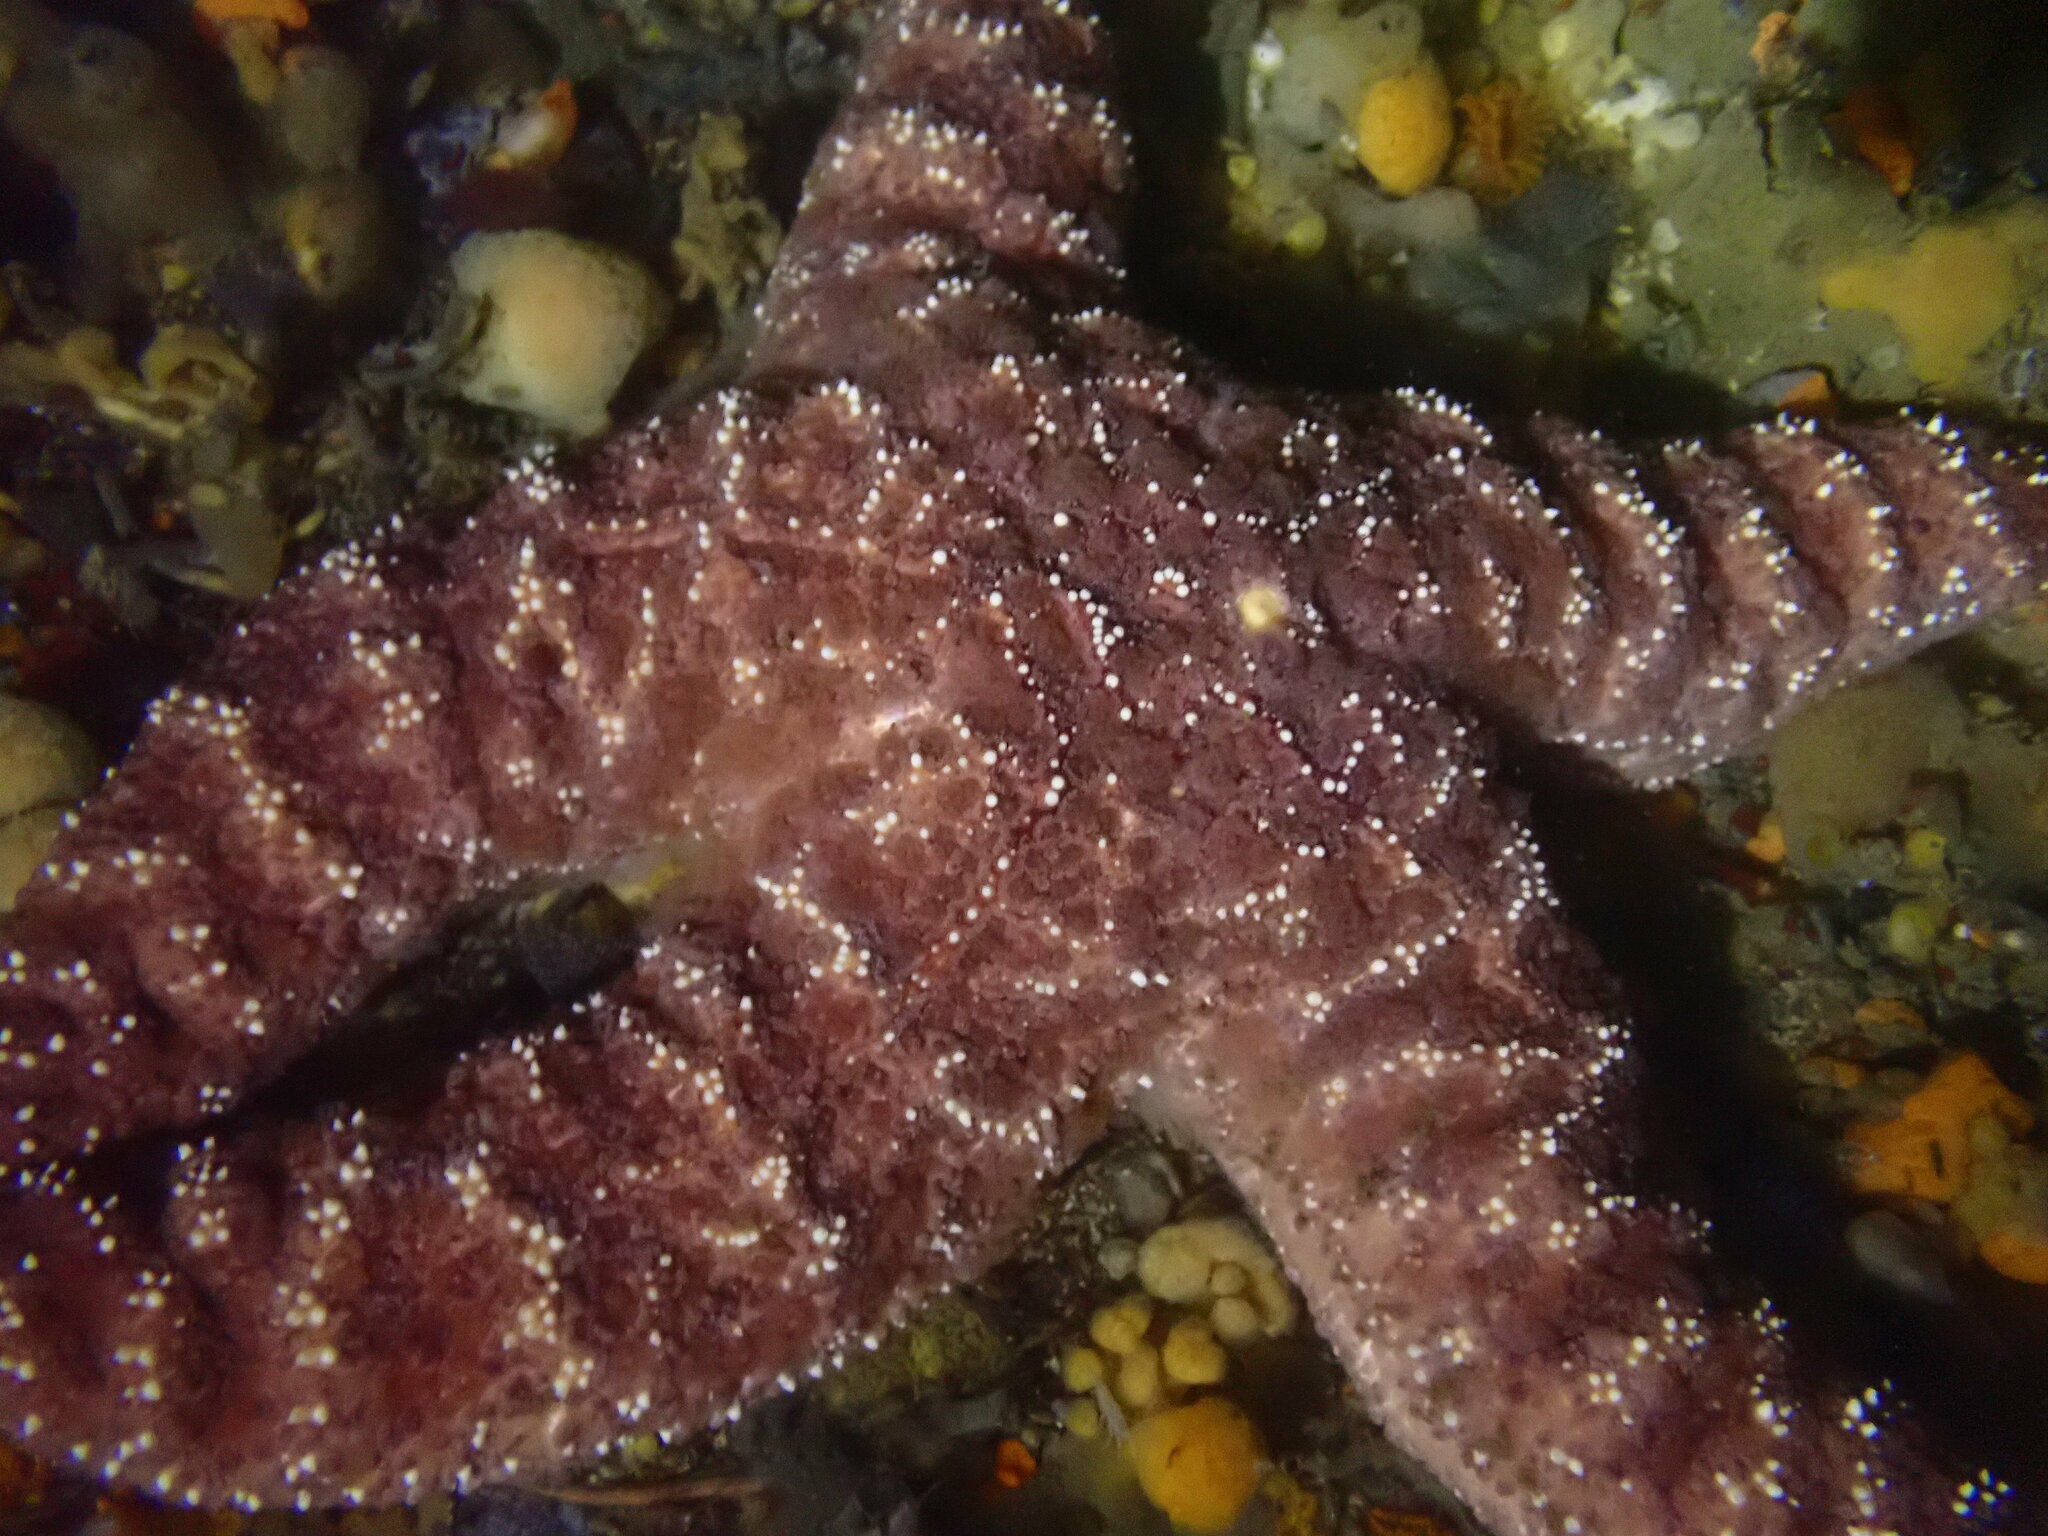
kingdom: Animalia
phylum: Echinodermata
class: Asteroidea
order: Forcipulatida
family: Asteriidae
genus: Pisaster
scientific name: Pisaster ochraceus
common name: Ochre stars
